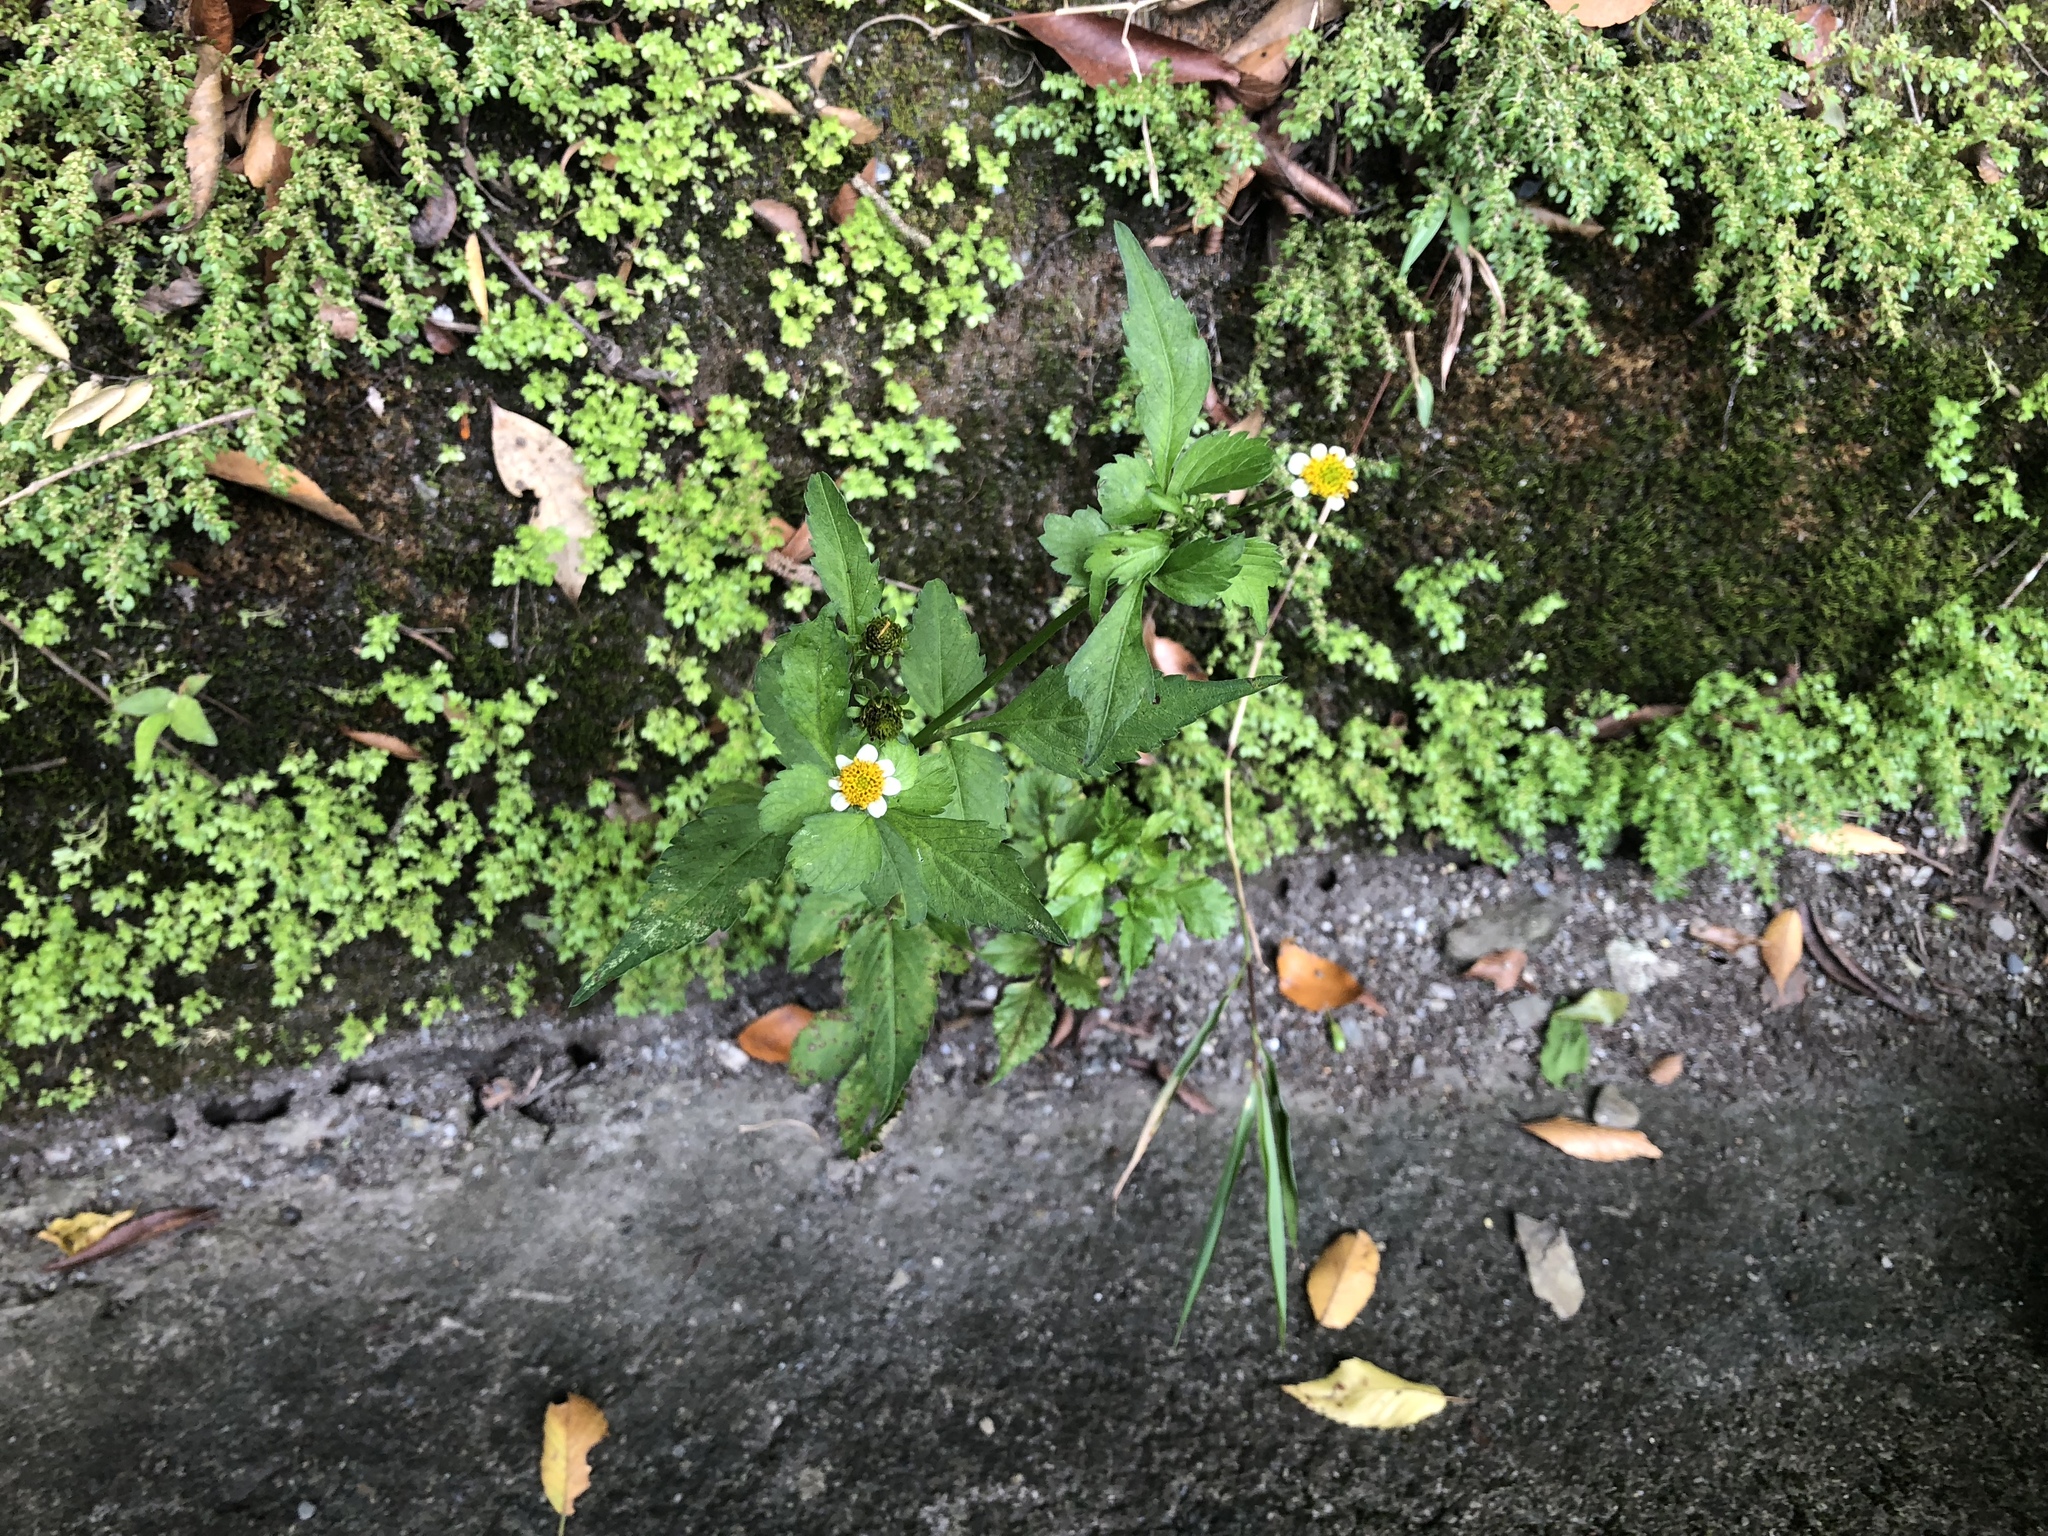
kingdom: Plantae
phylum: Tracheophyta
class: Magnoliopsida
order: Asterales
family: Asteraceae
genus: Bidens
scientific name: Bidens pilosa
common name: Black-jack
